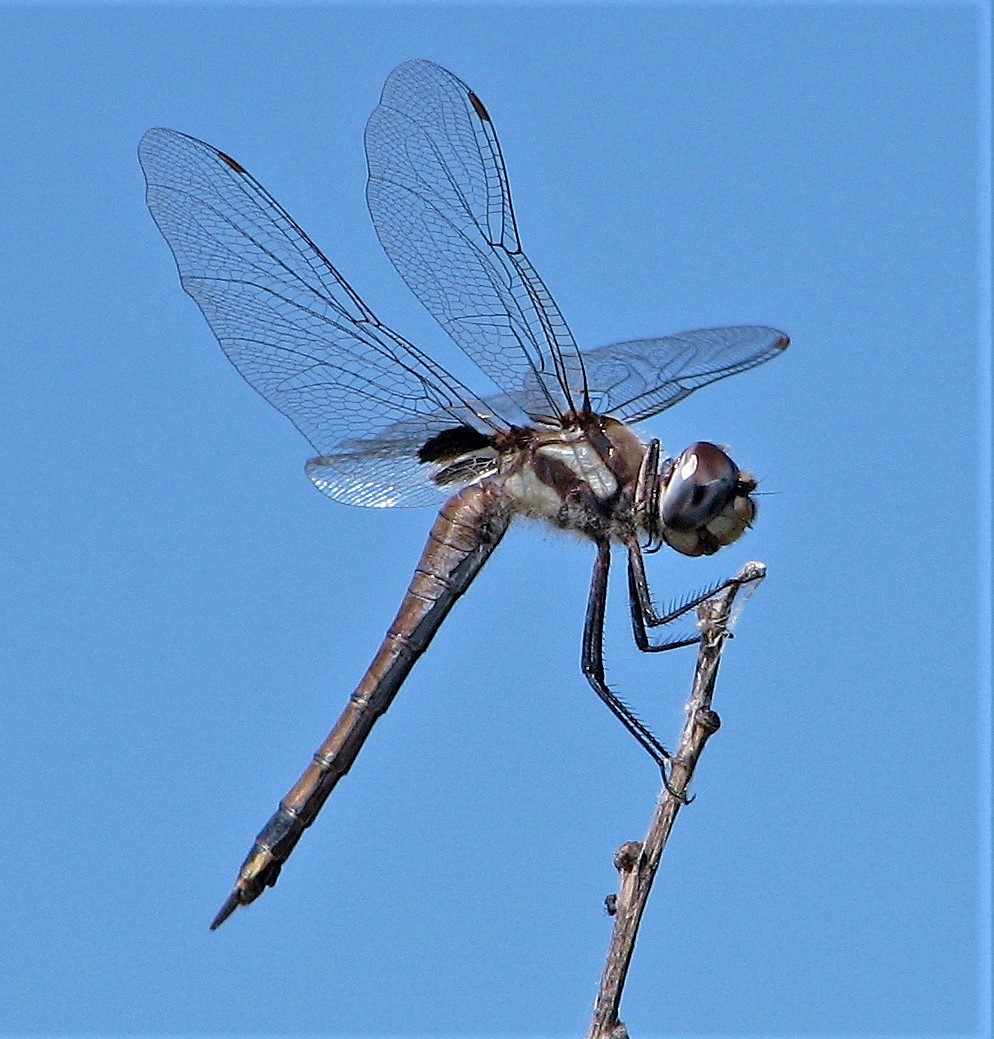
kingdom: Animalia
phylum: Arthropoda
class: Insecta
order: Odonata
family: Libellulidae
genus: Tramea
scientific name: Tramea cophysa
